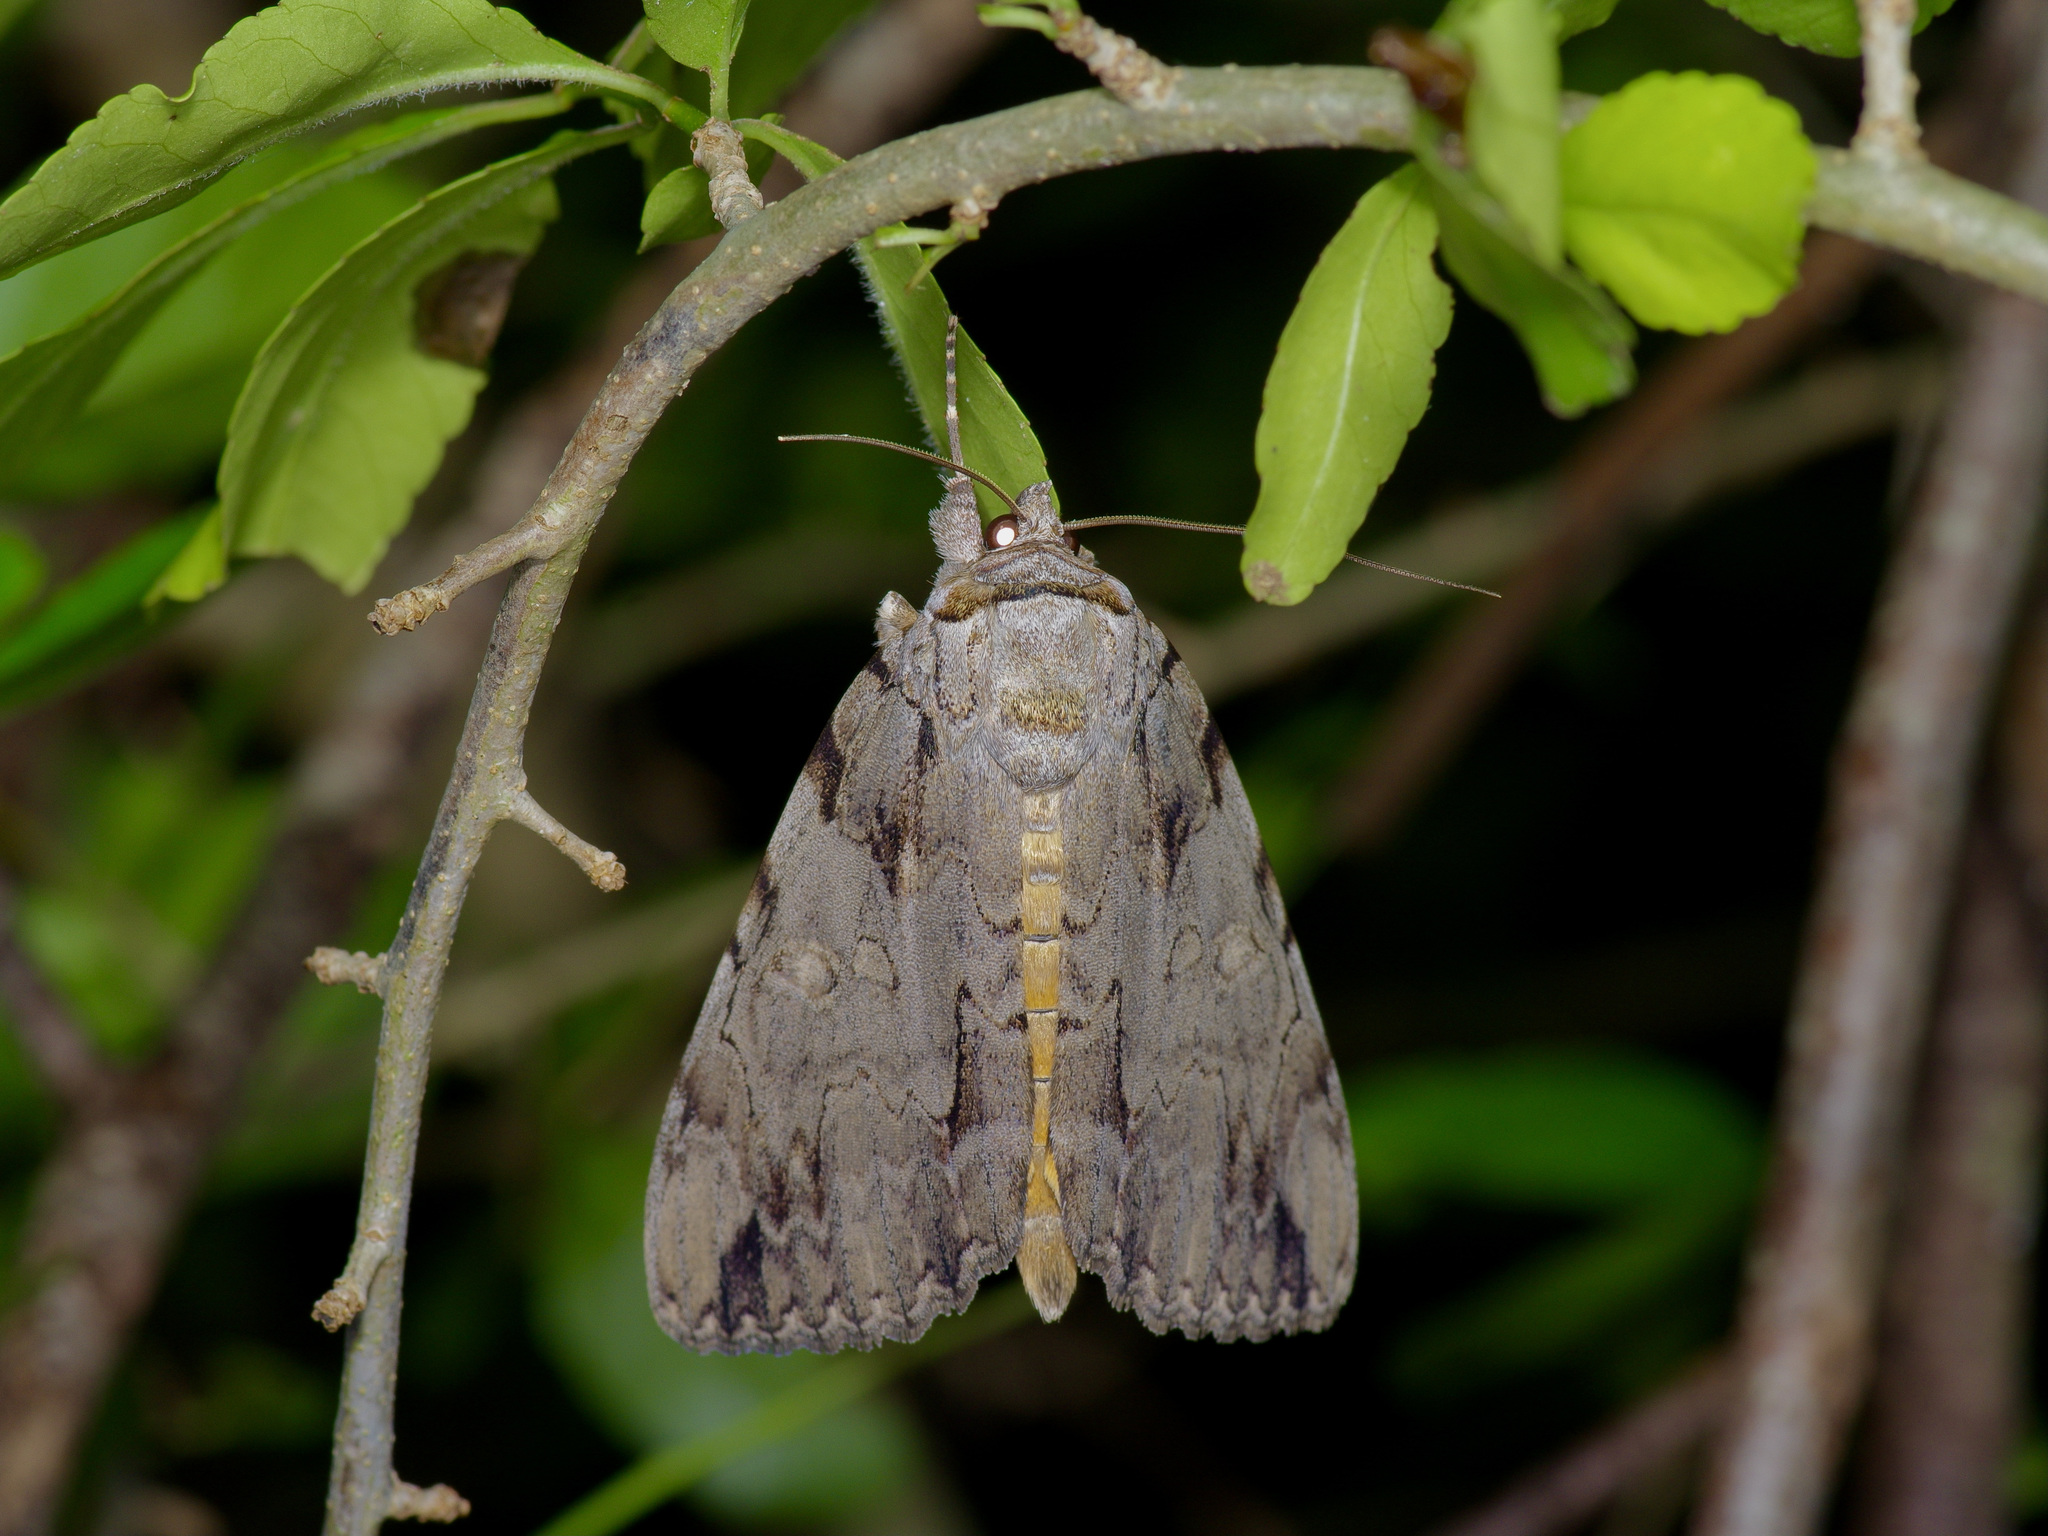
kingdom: Animalia
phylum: Arthropoda
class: Insecta
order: Lepidoptera
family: Erebidae
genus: Catocala
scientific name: Catocala neogama
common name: Bride underwing
